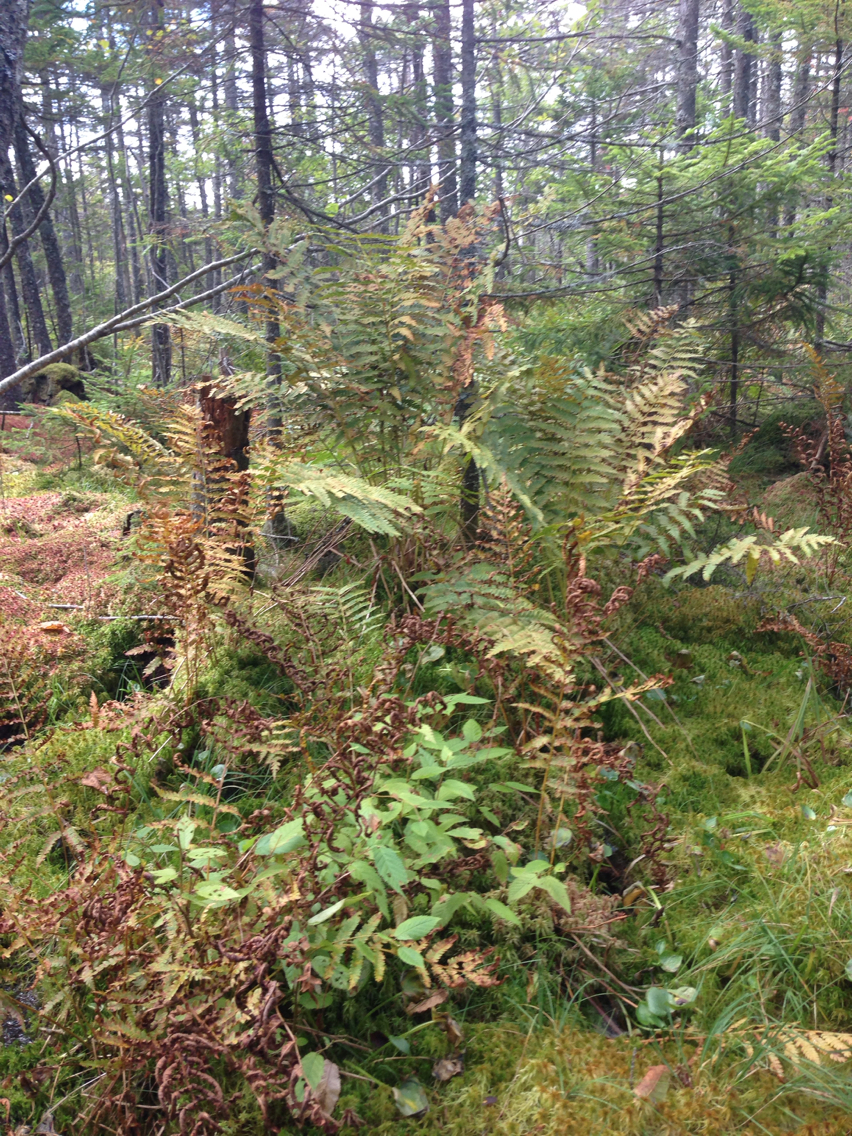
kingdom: Plantae
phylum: Tracheophyta
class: Polypodiopsida
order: Osmundales
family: Osmundaceae
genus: Osmundastrum
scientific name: Osmundastrum cinnamomeum
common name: Cinnamon fern
